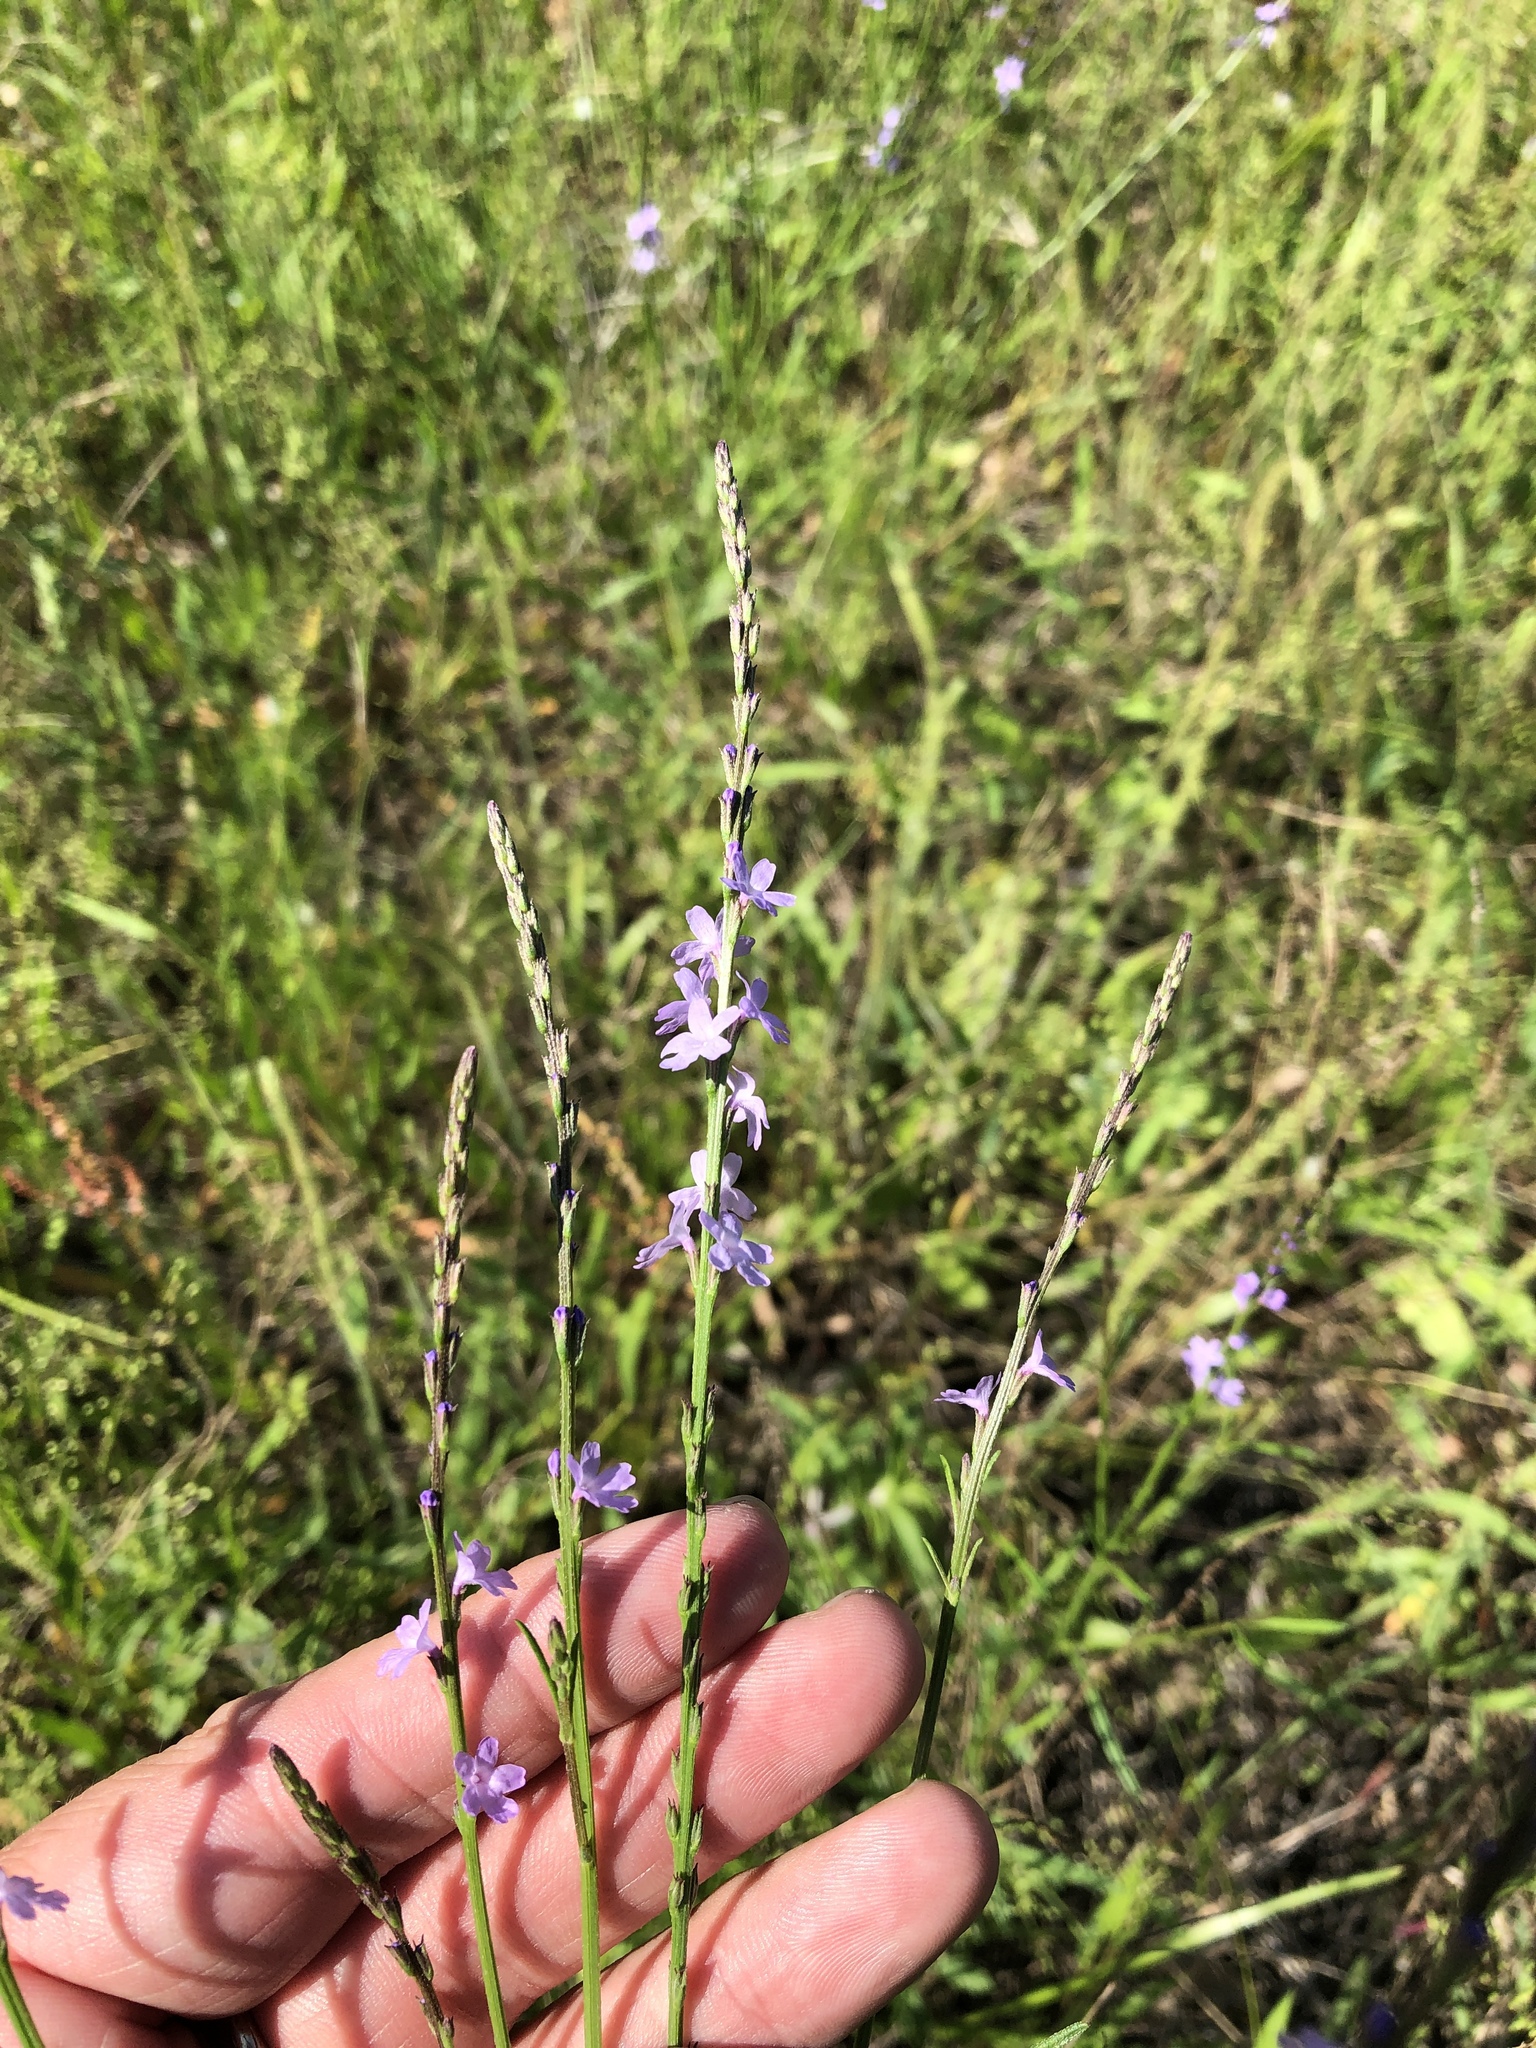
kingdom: Plantae
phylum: Tracheophyta
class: Magnoliopsida
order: Lamiales
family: Verbenaceae
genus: Verbena
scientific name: Verbena halei
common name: Texas vervain
